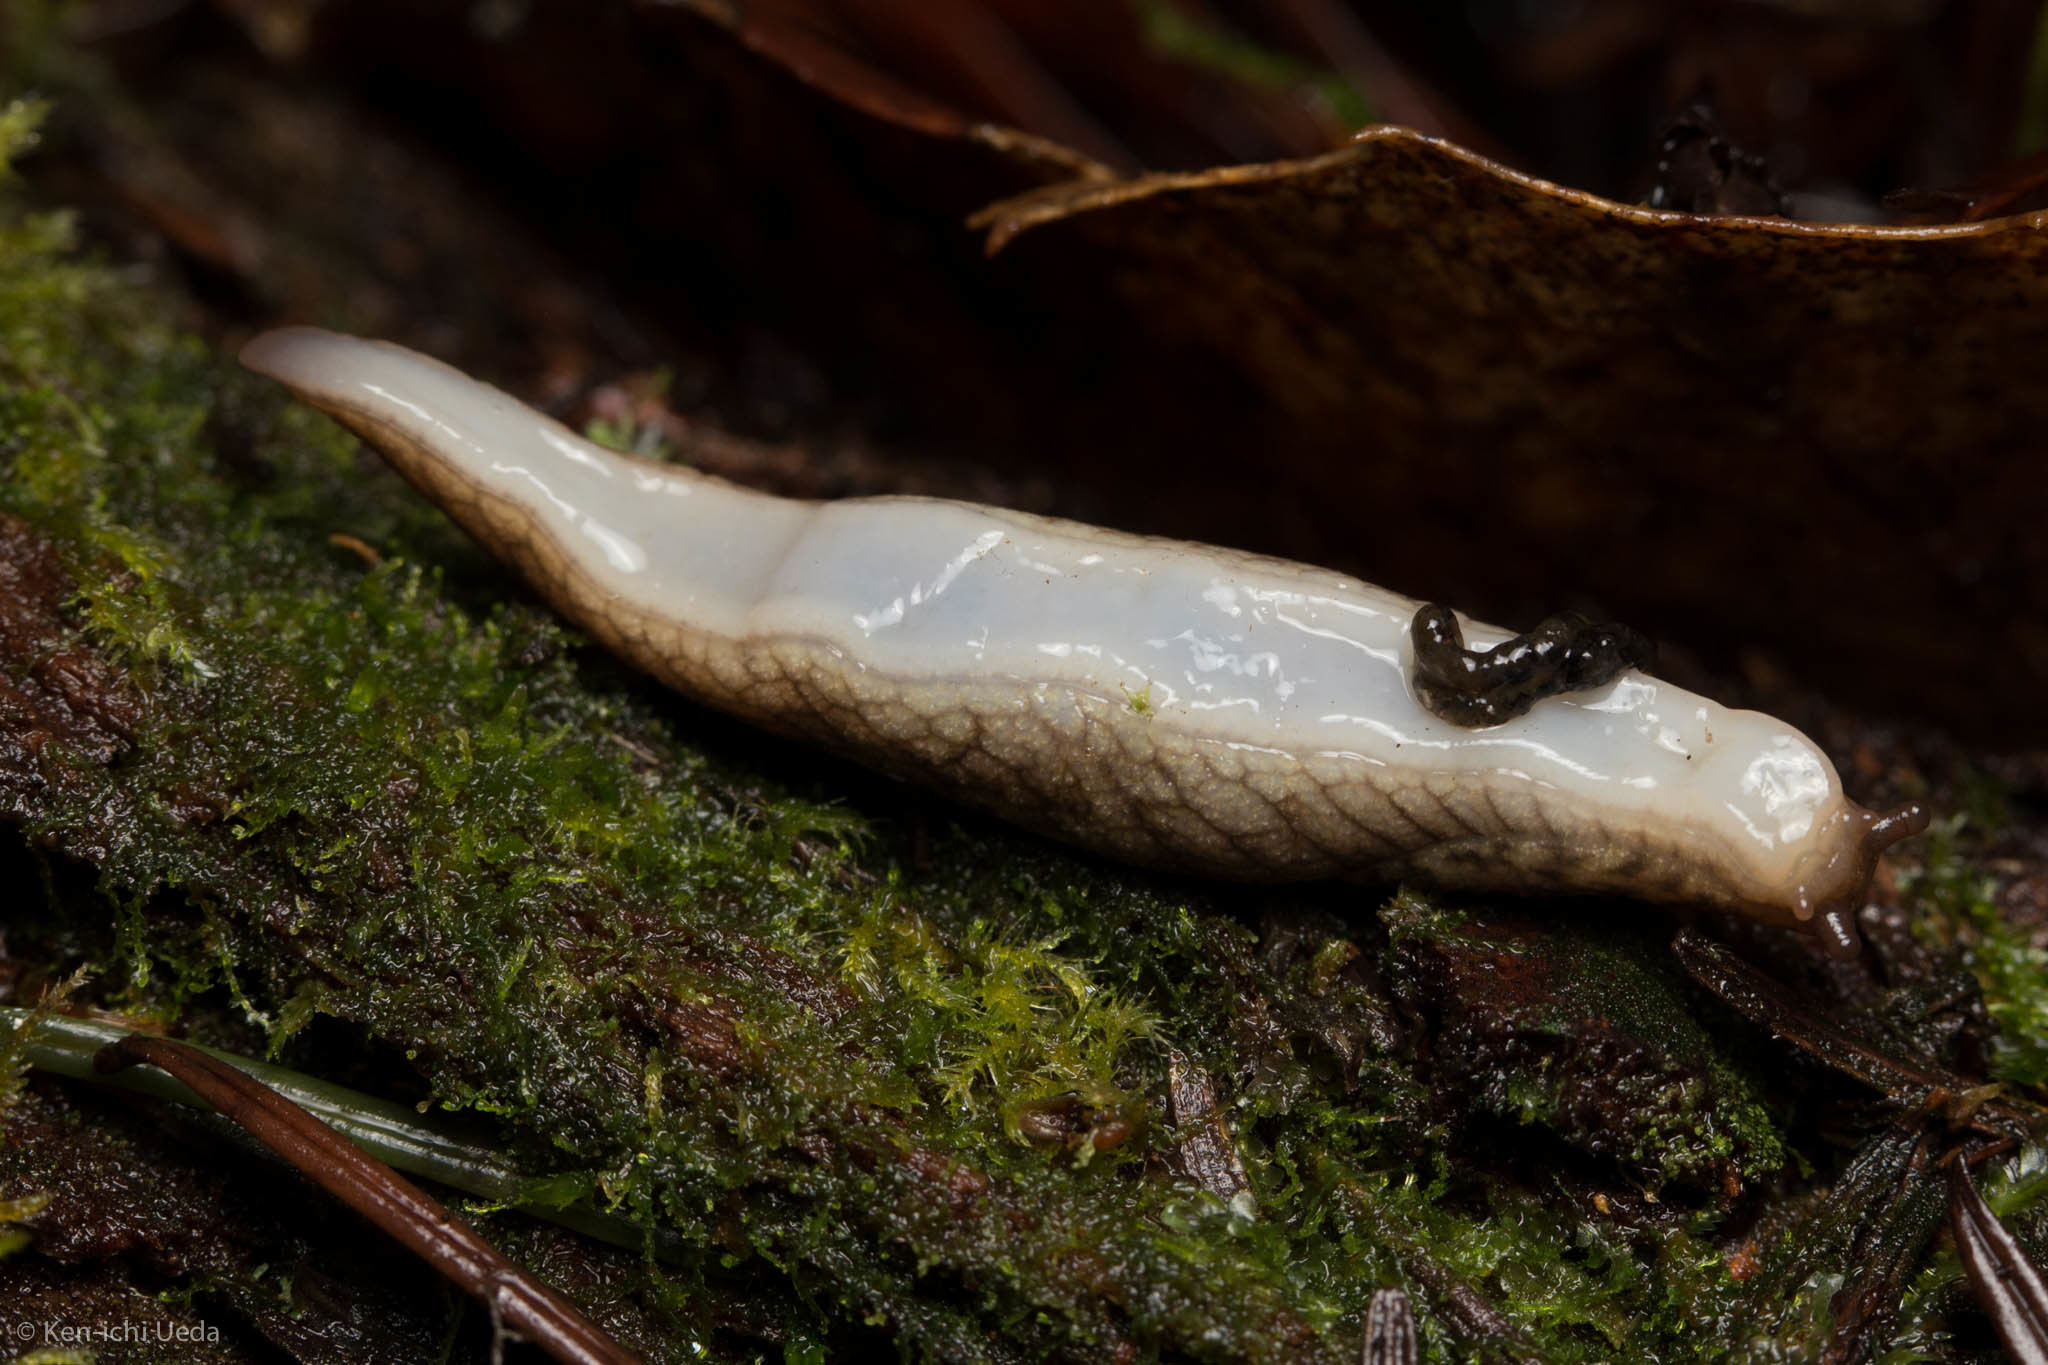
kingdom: Animalia
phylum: Mollusca
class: Gastropoda
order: Stylommatophora
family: Ariolimacidae
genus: Prophysaon
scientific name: Prophysaon andersonii
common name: Reticulate taildropper
